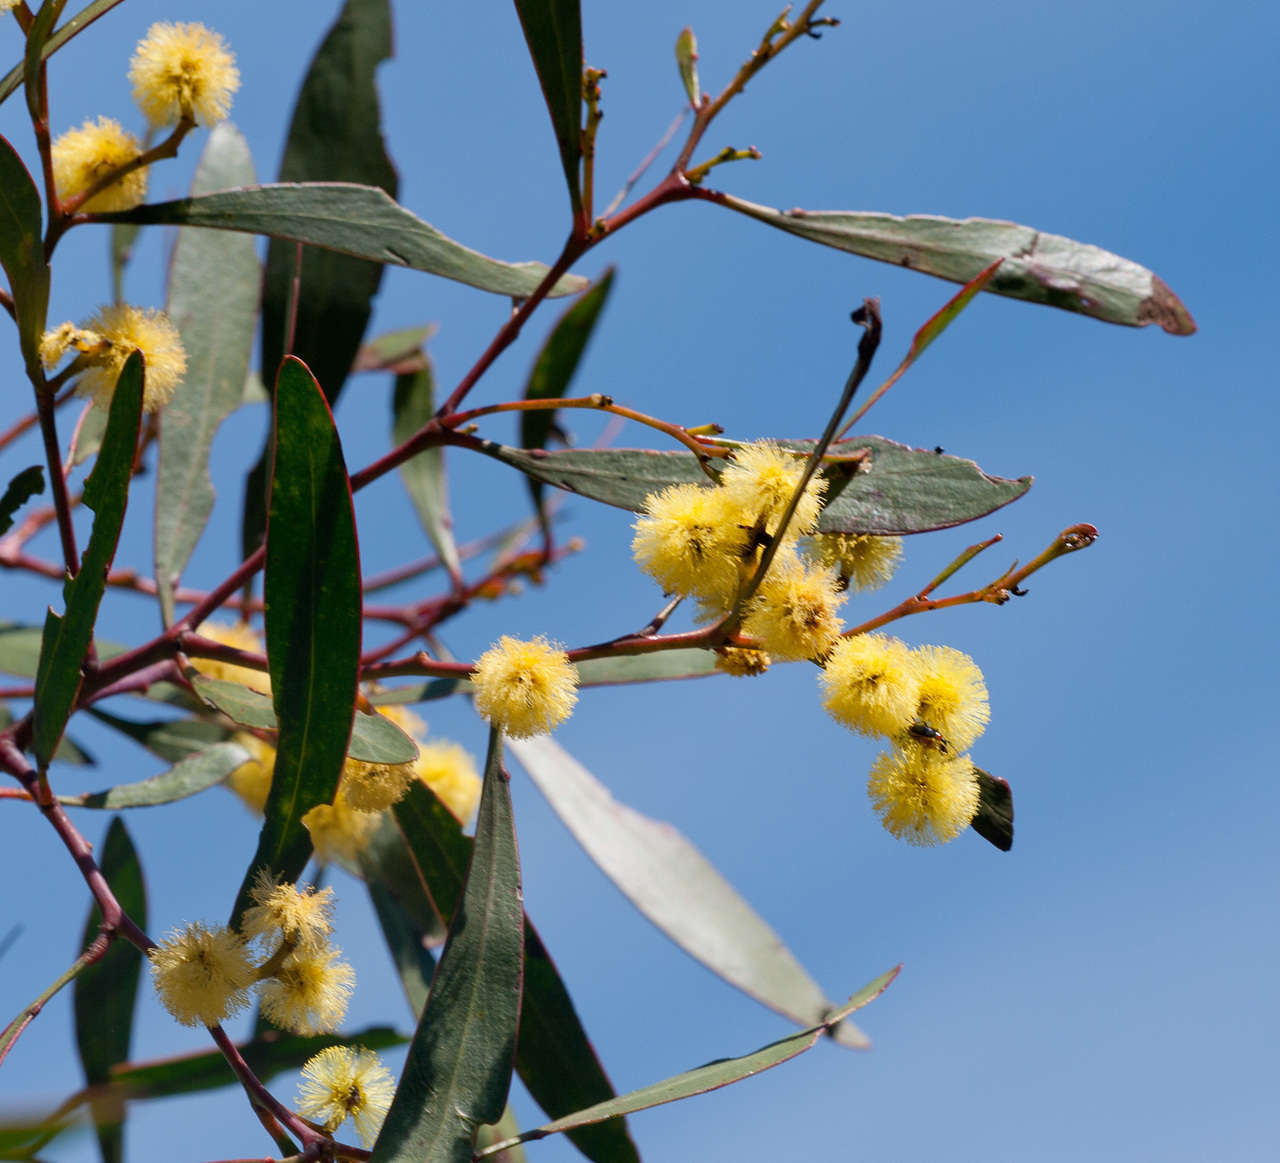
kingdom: Plantae
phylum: Tracheophyta
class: Magnoliopsida
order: Fabales
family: Fabaceae
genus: Acacia
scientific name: Acacia pycnantha
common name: Golden wattle
